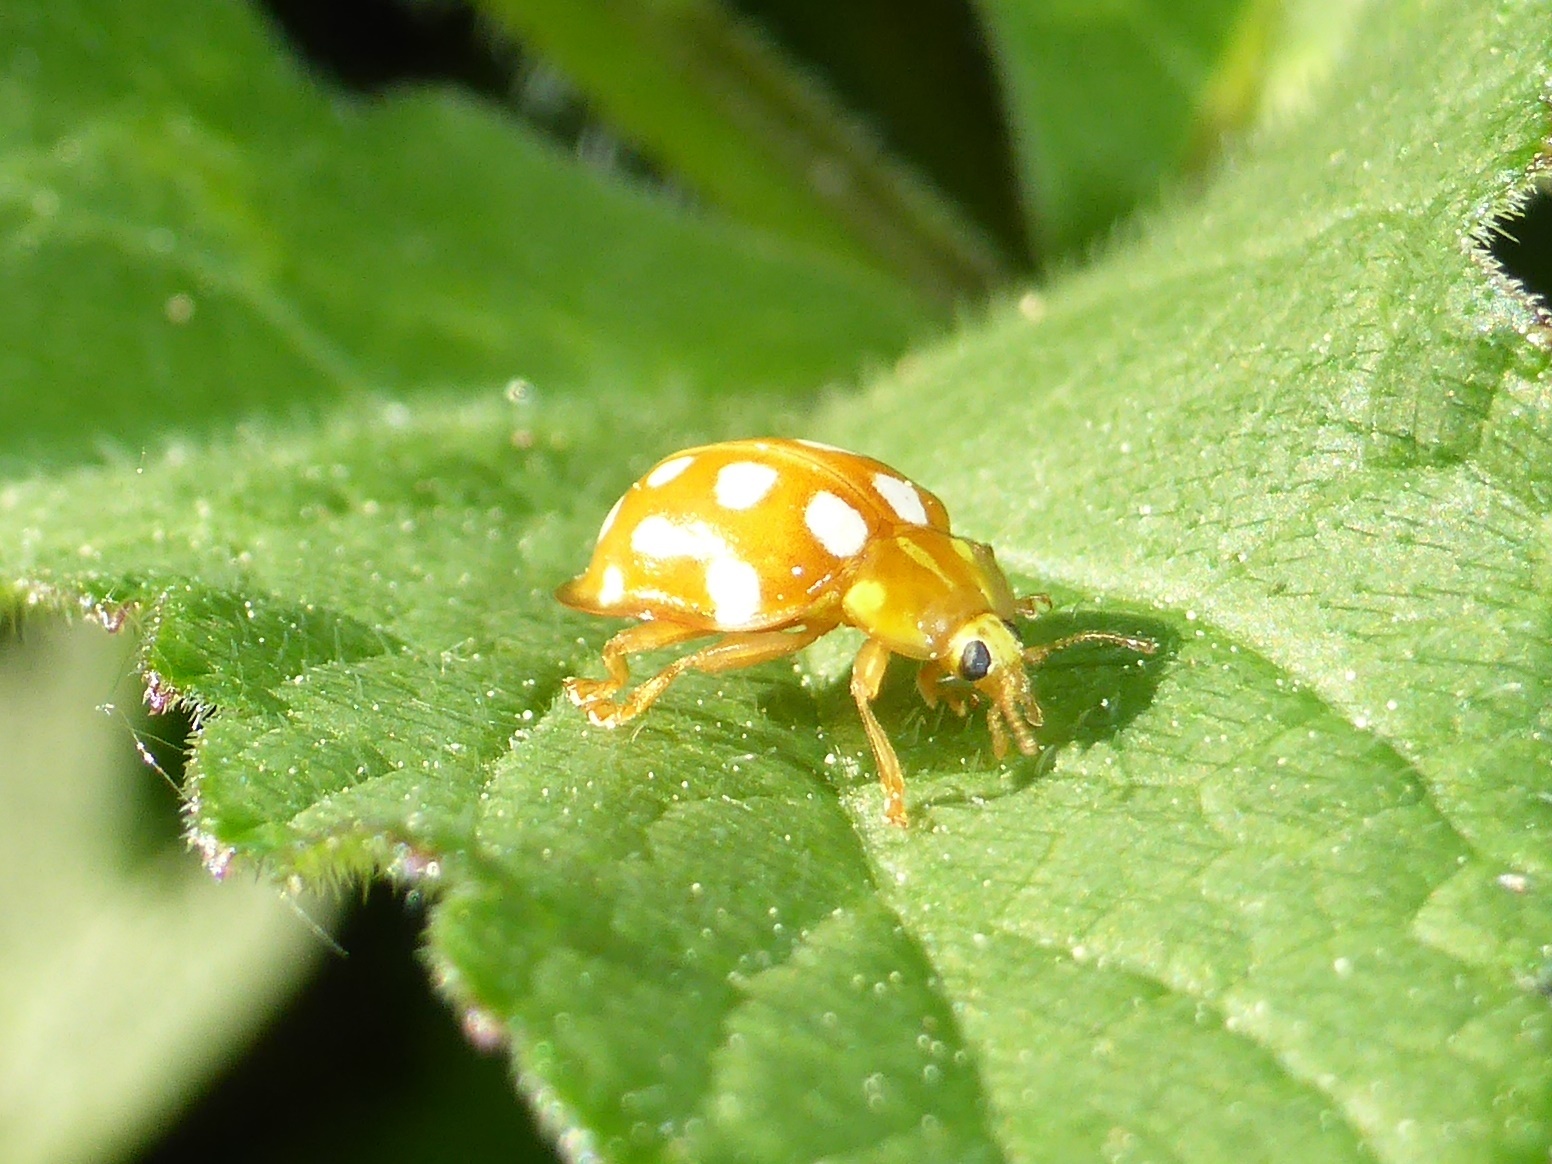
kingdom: Animalia
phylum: Arthropoda
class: Insecta
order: Coleoptera
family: Coccinellidae
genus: Halyzia
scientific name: Halyzia sedecimguttata
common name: Orange ladybird
